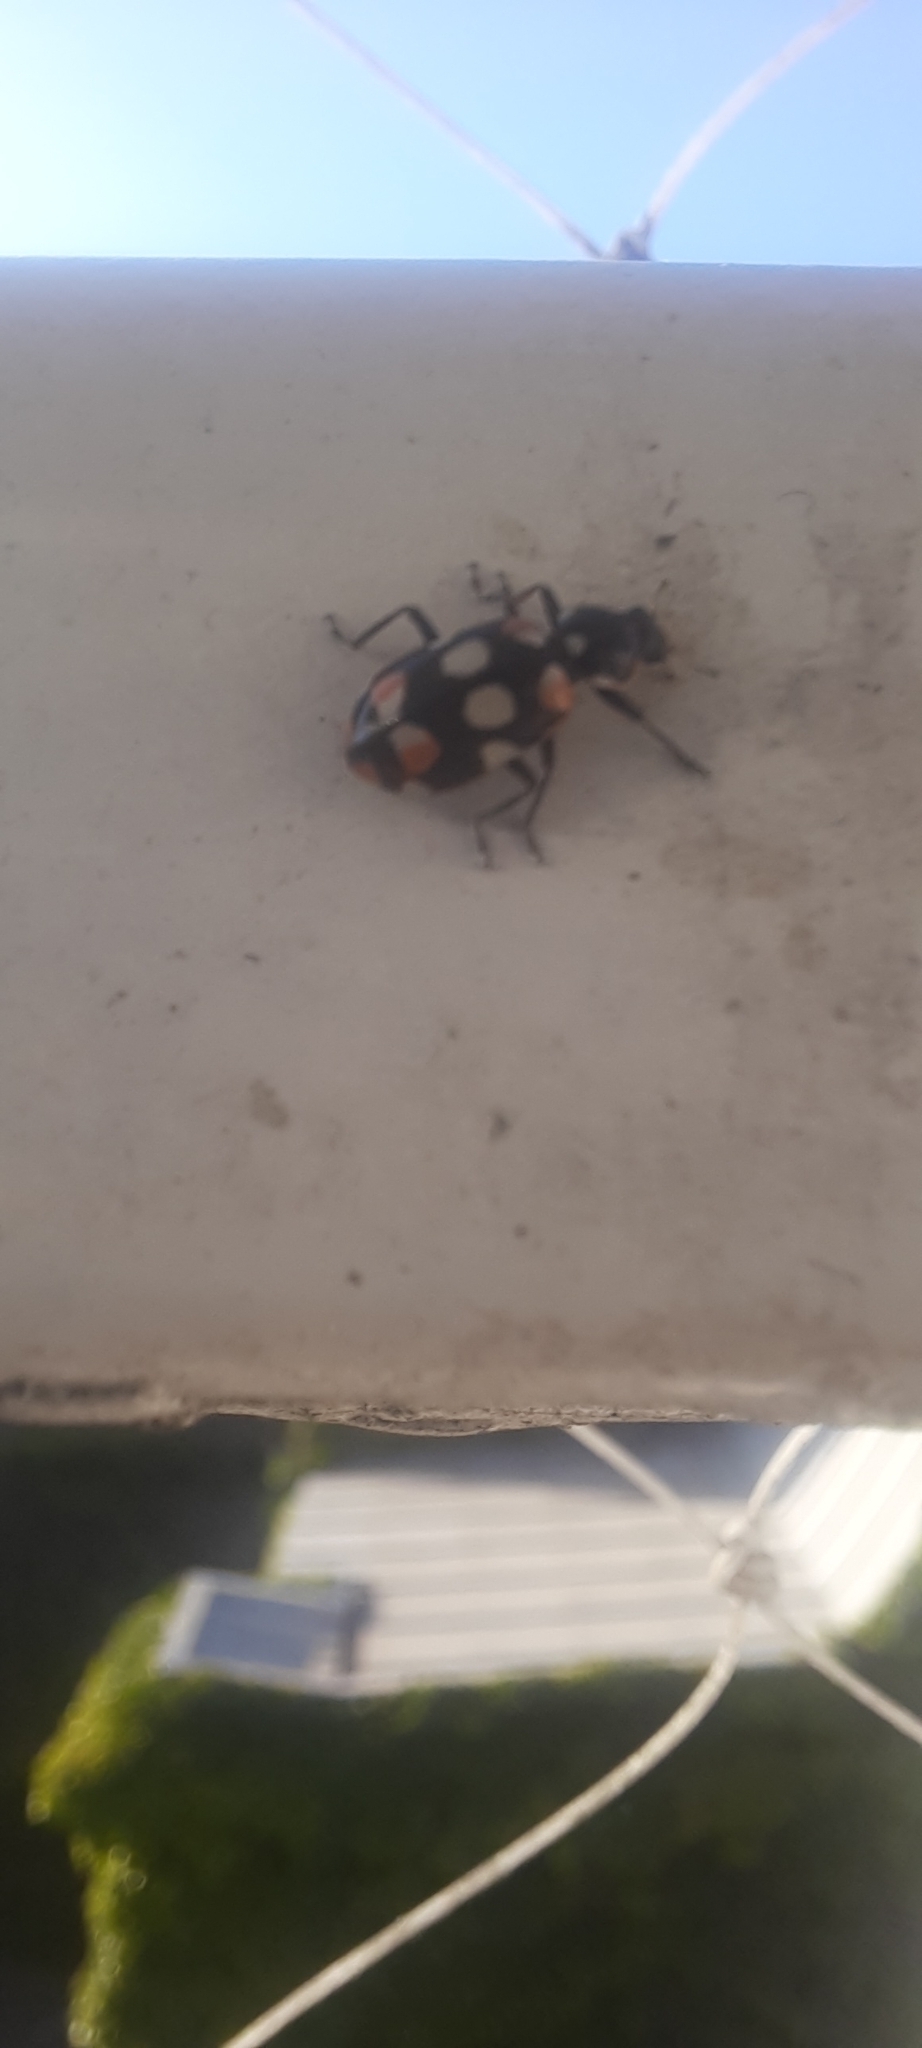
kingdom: Animalia
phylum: Arthropoda
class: Insecta
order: Coleoptera
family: Coccinellidae
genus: Eriopis
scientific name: Eriopis connexa
